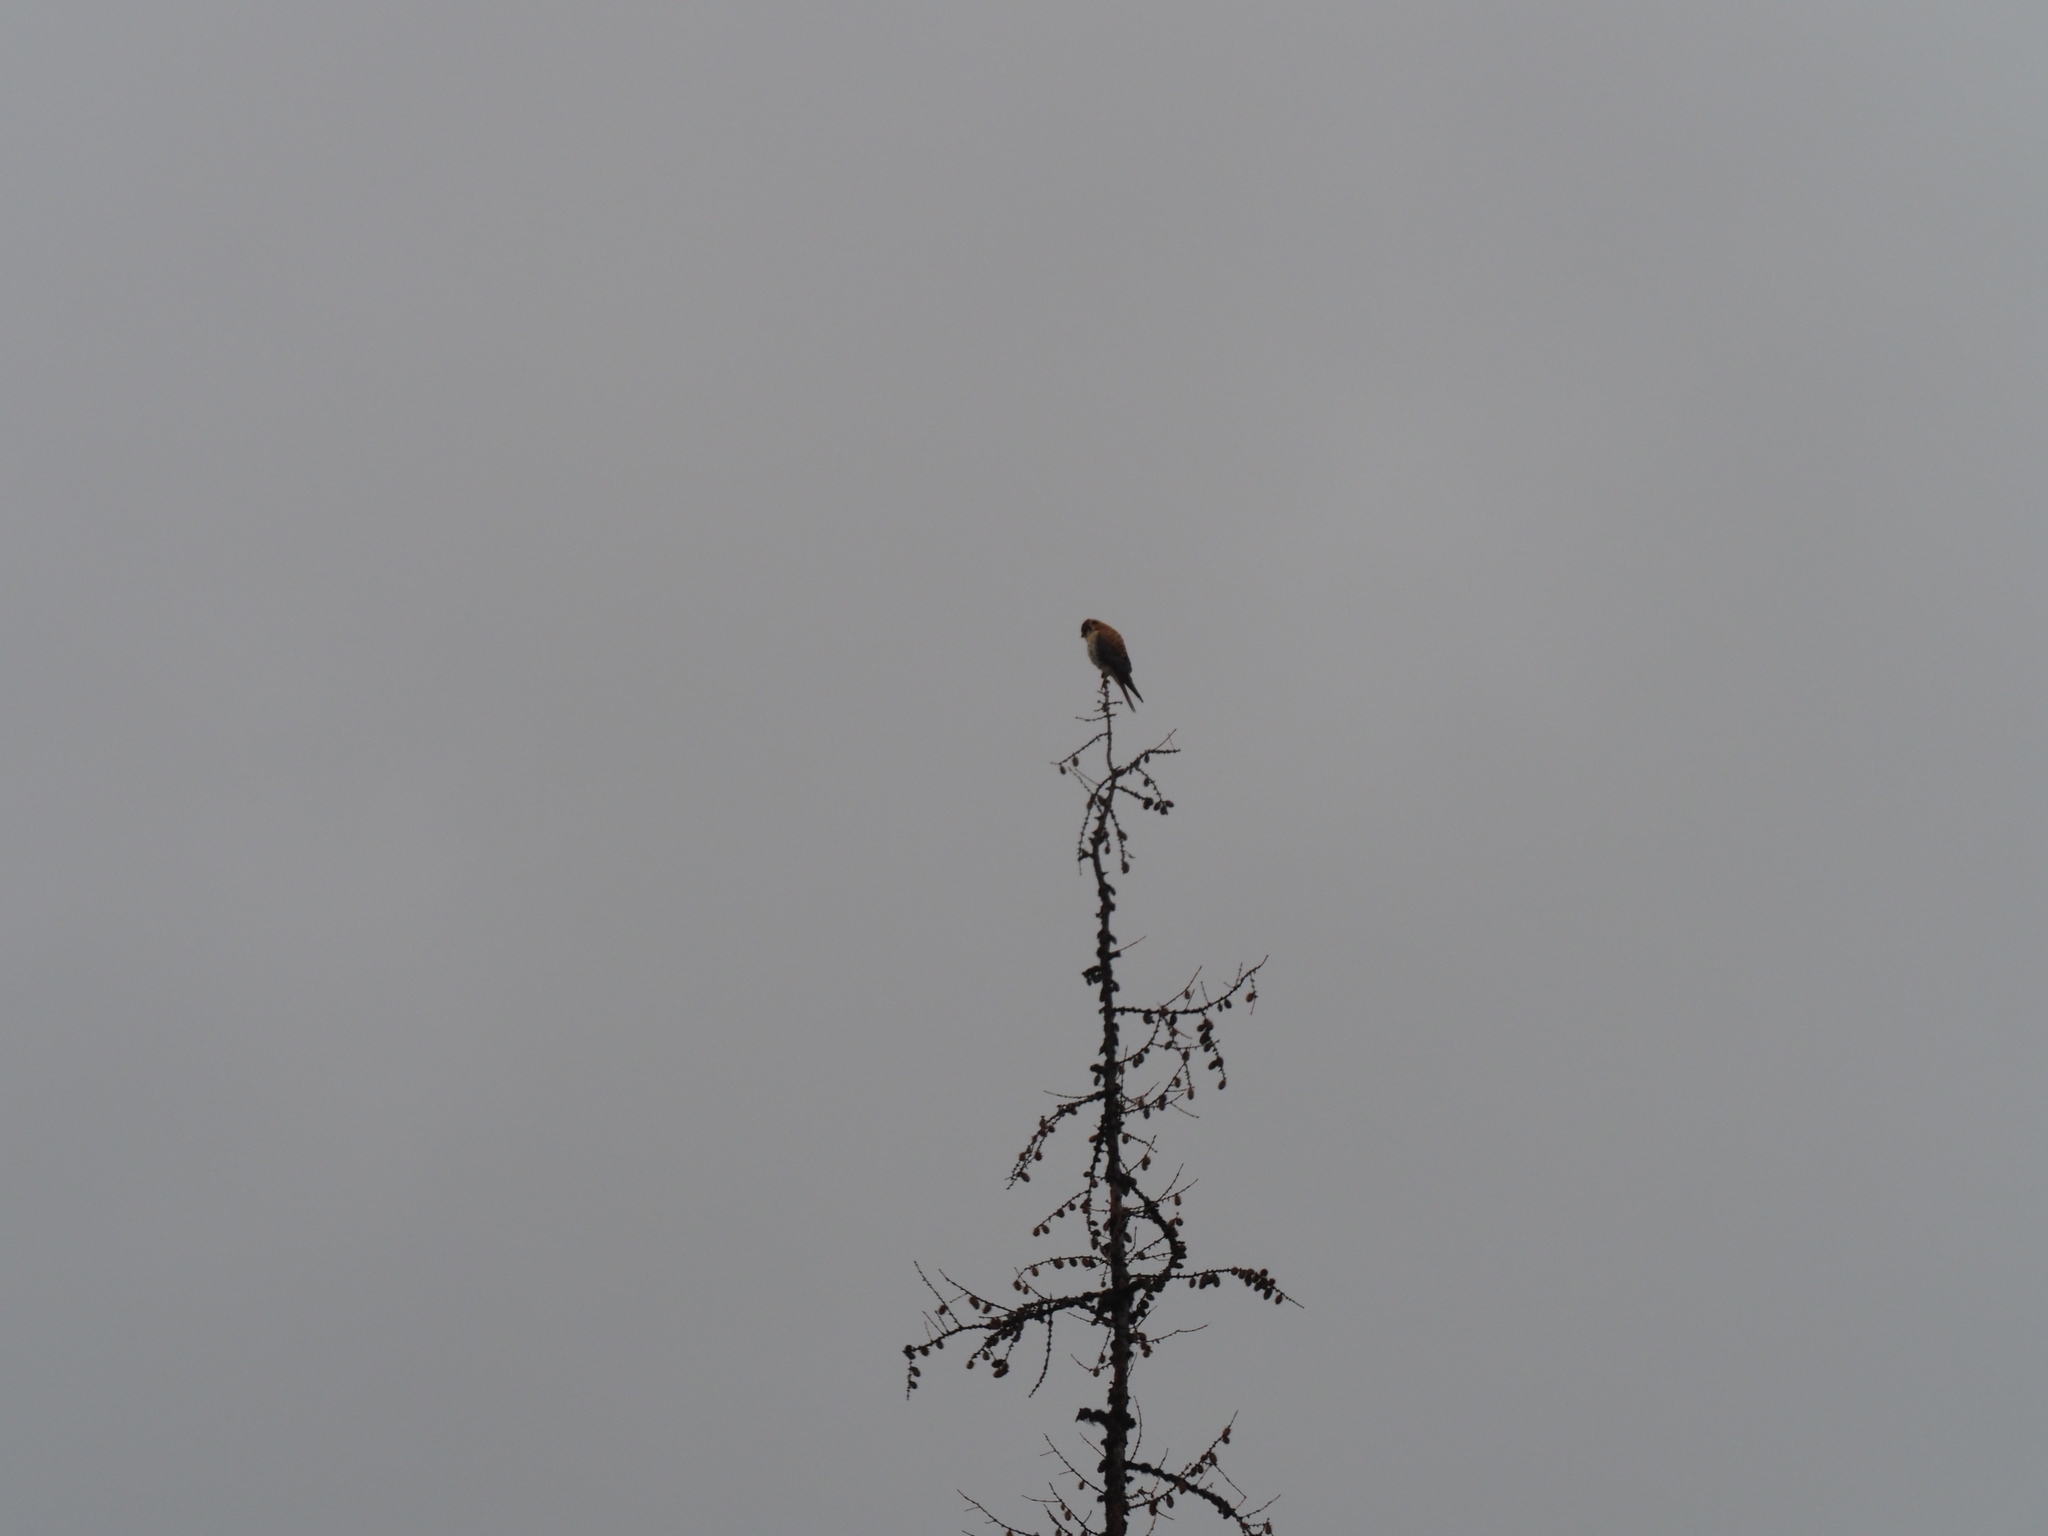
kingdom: Animalia
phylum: Chordata
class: Aves
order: Falconiformes
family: Falconidae
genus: Falco
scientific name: Falco sparverius
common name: American kestrel
